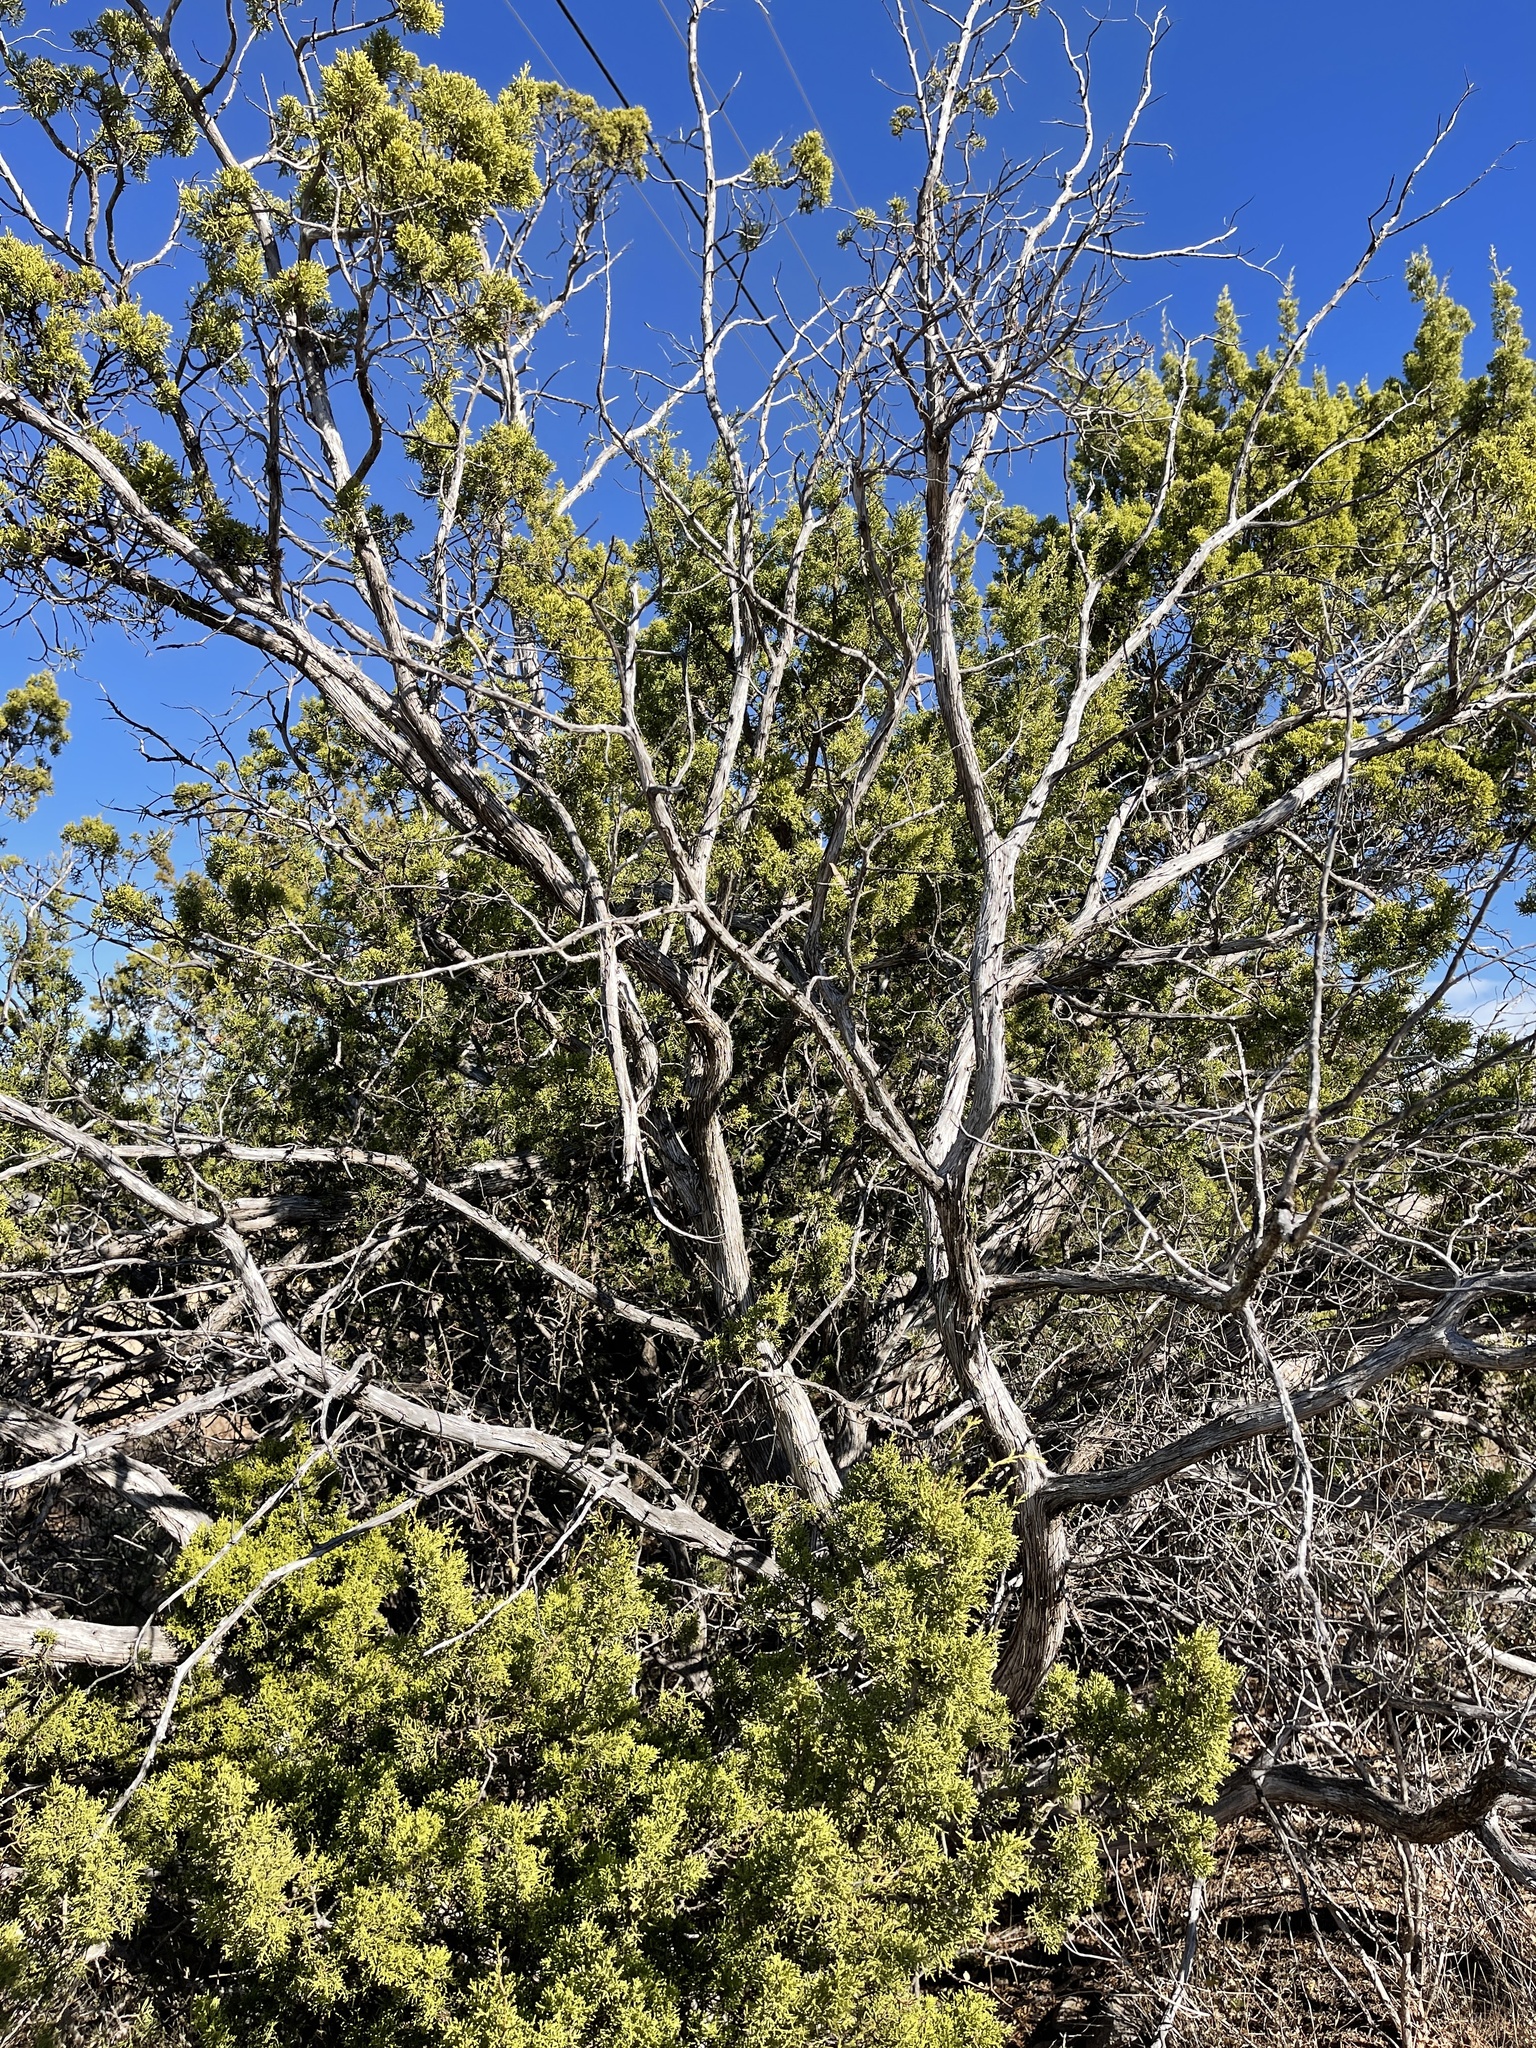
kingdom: Plantae
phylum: Tracheophyta
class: Pinopsida
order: Pinales
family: Cupressaceae
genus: Juniperus
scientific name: Juniperus pinchotii
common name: Pinchot juniper
